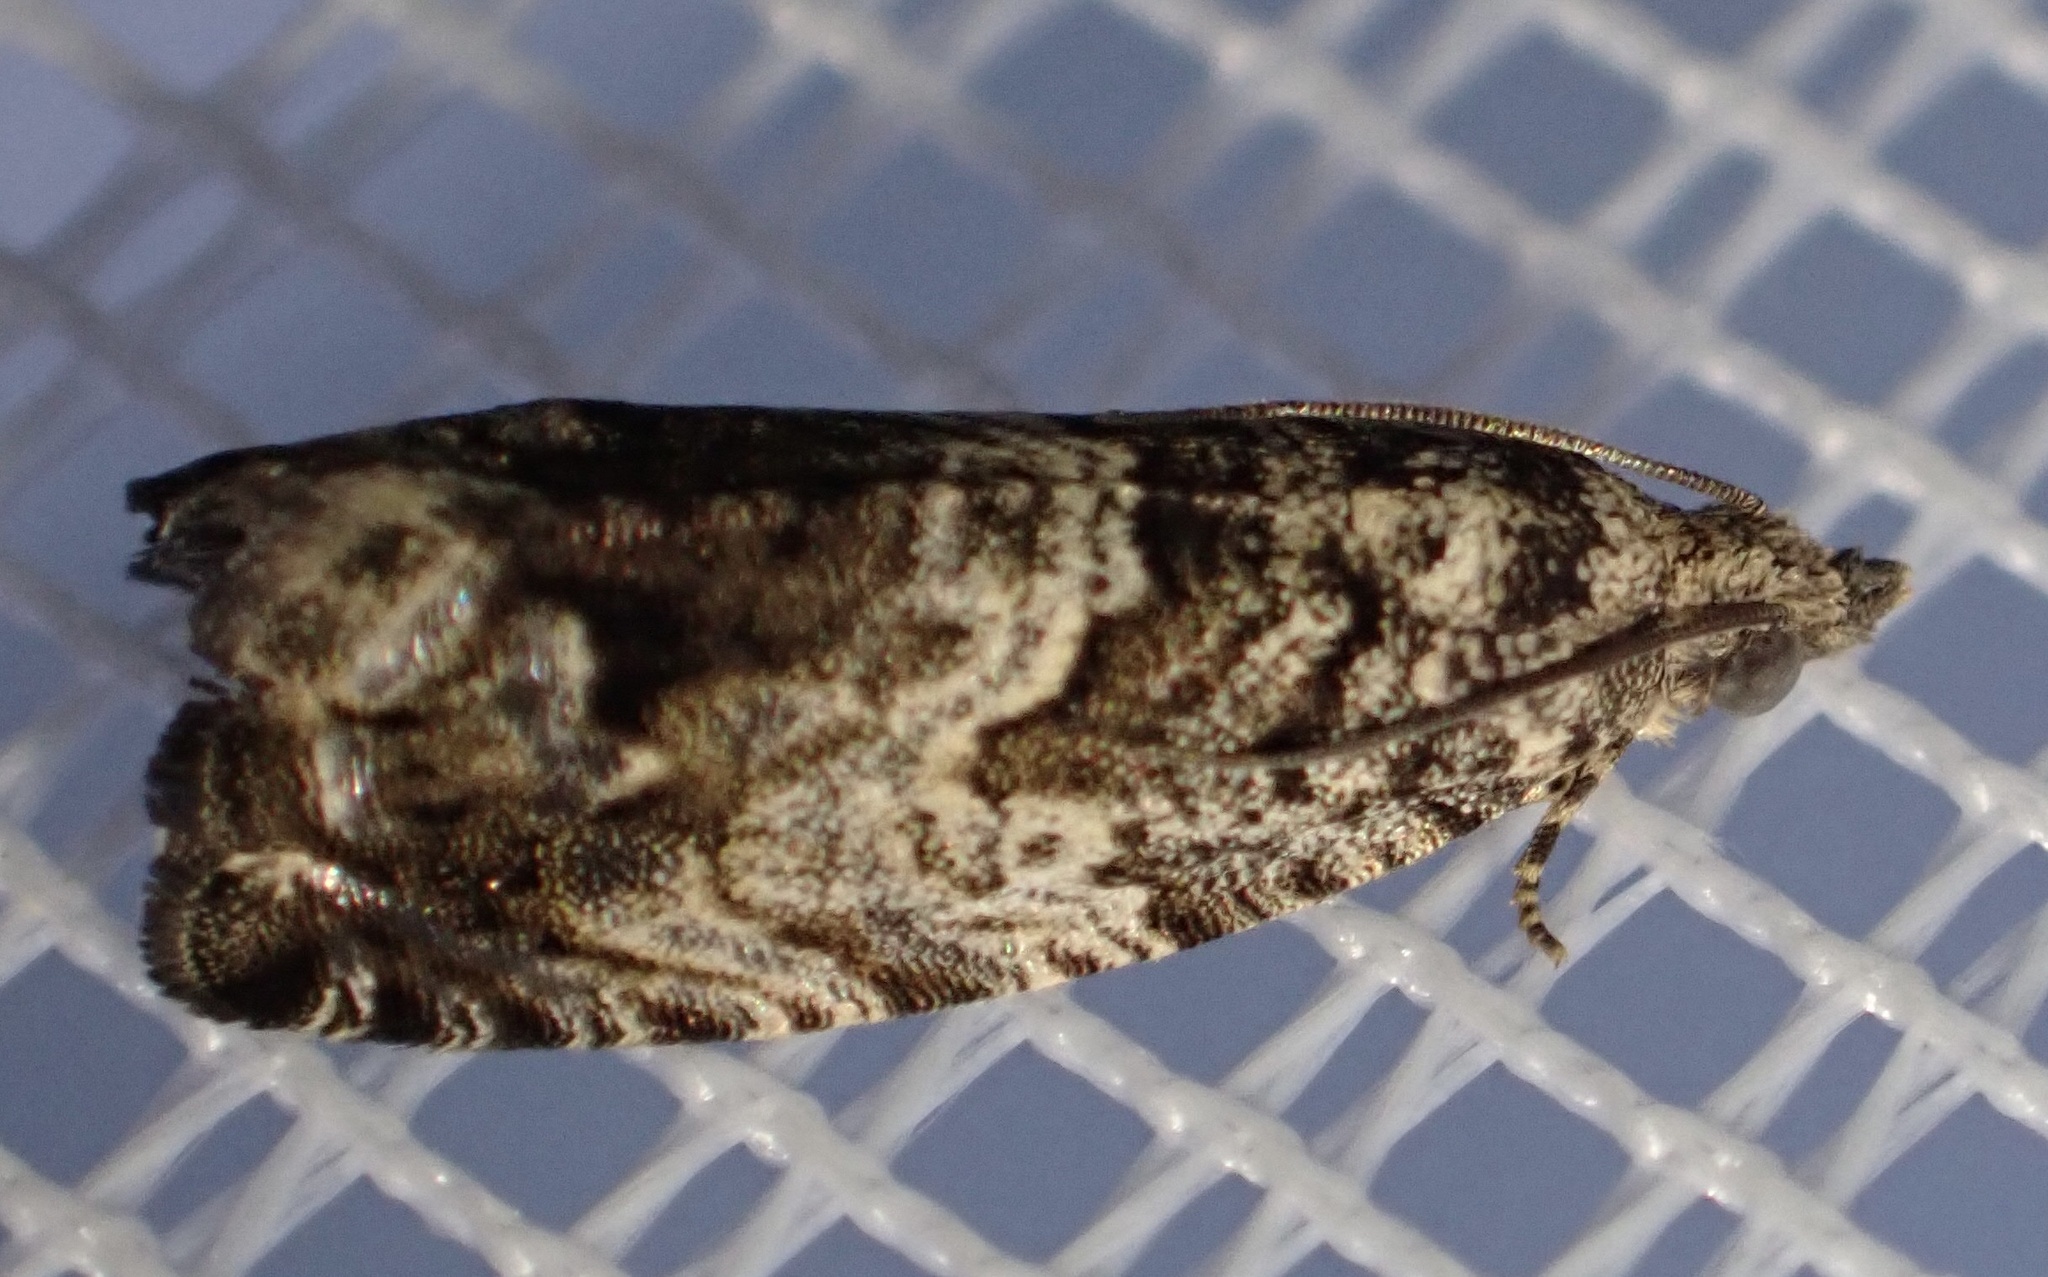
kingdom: Animalia
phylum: Arthropoda
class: Insecta
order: Lepidoptera
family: Tortricidae
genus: Cydia
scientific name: Cydia fagiglandana
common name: Large beech piercer
